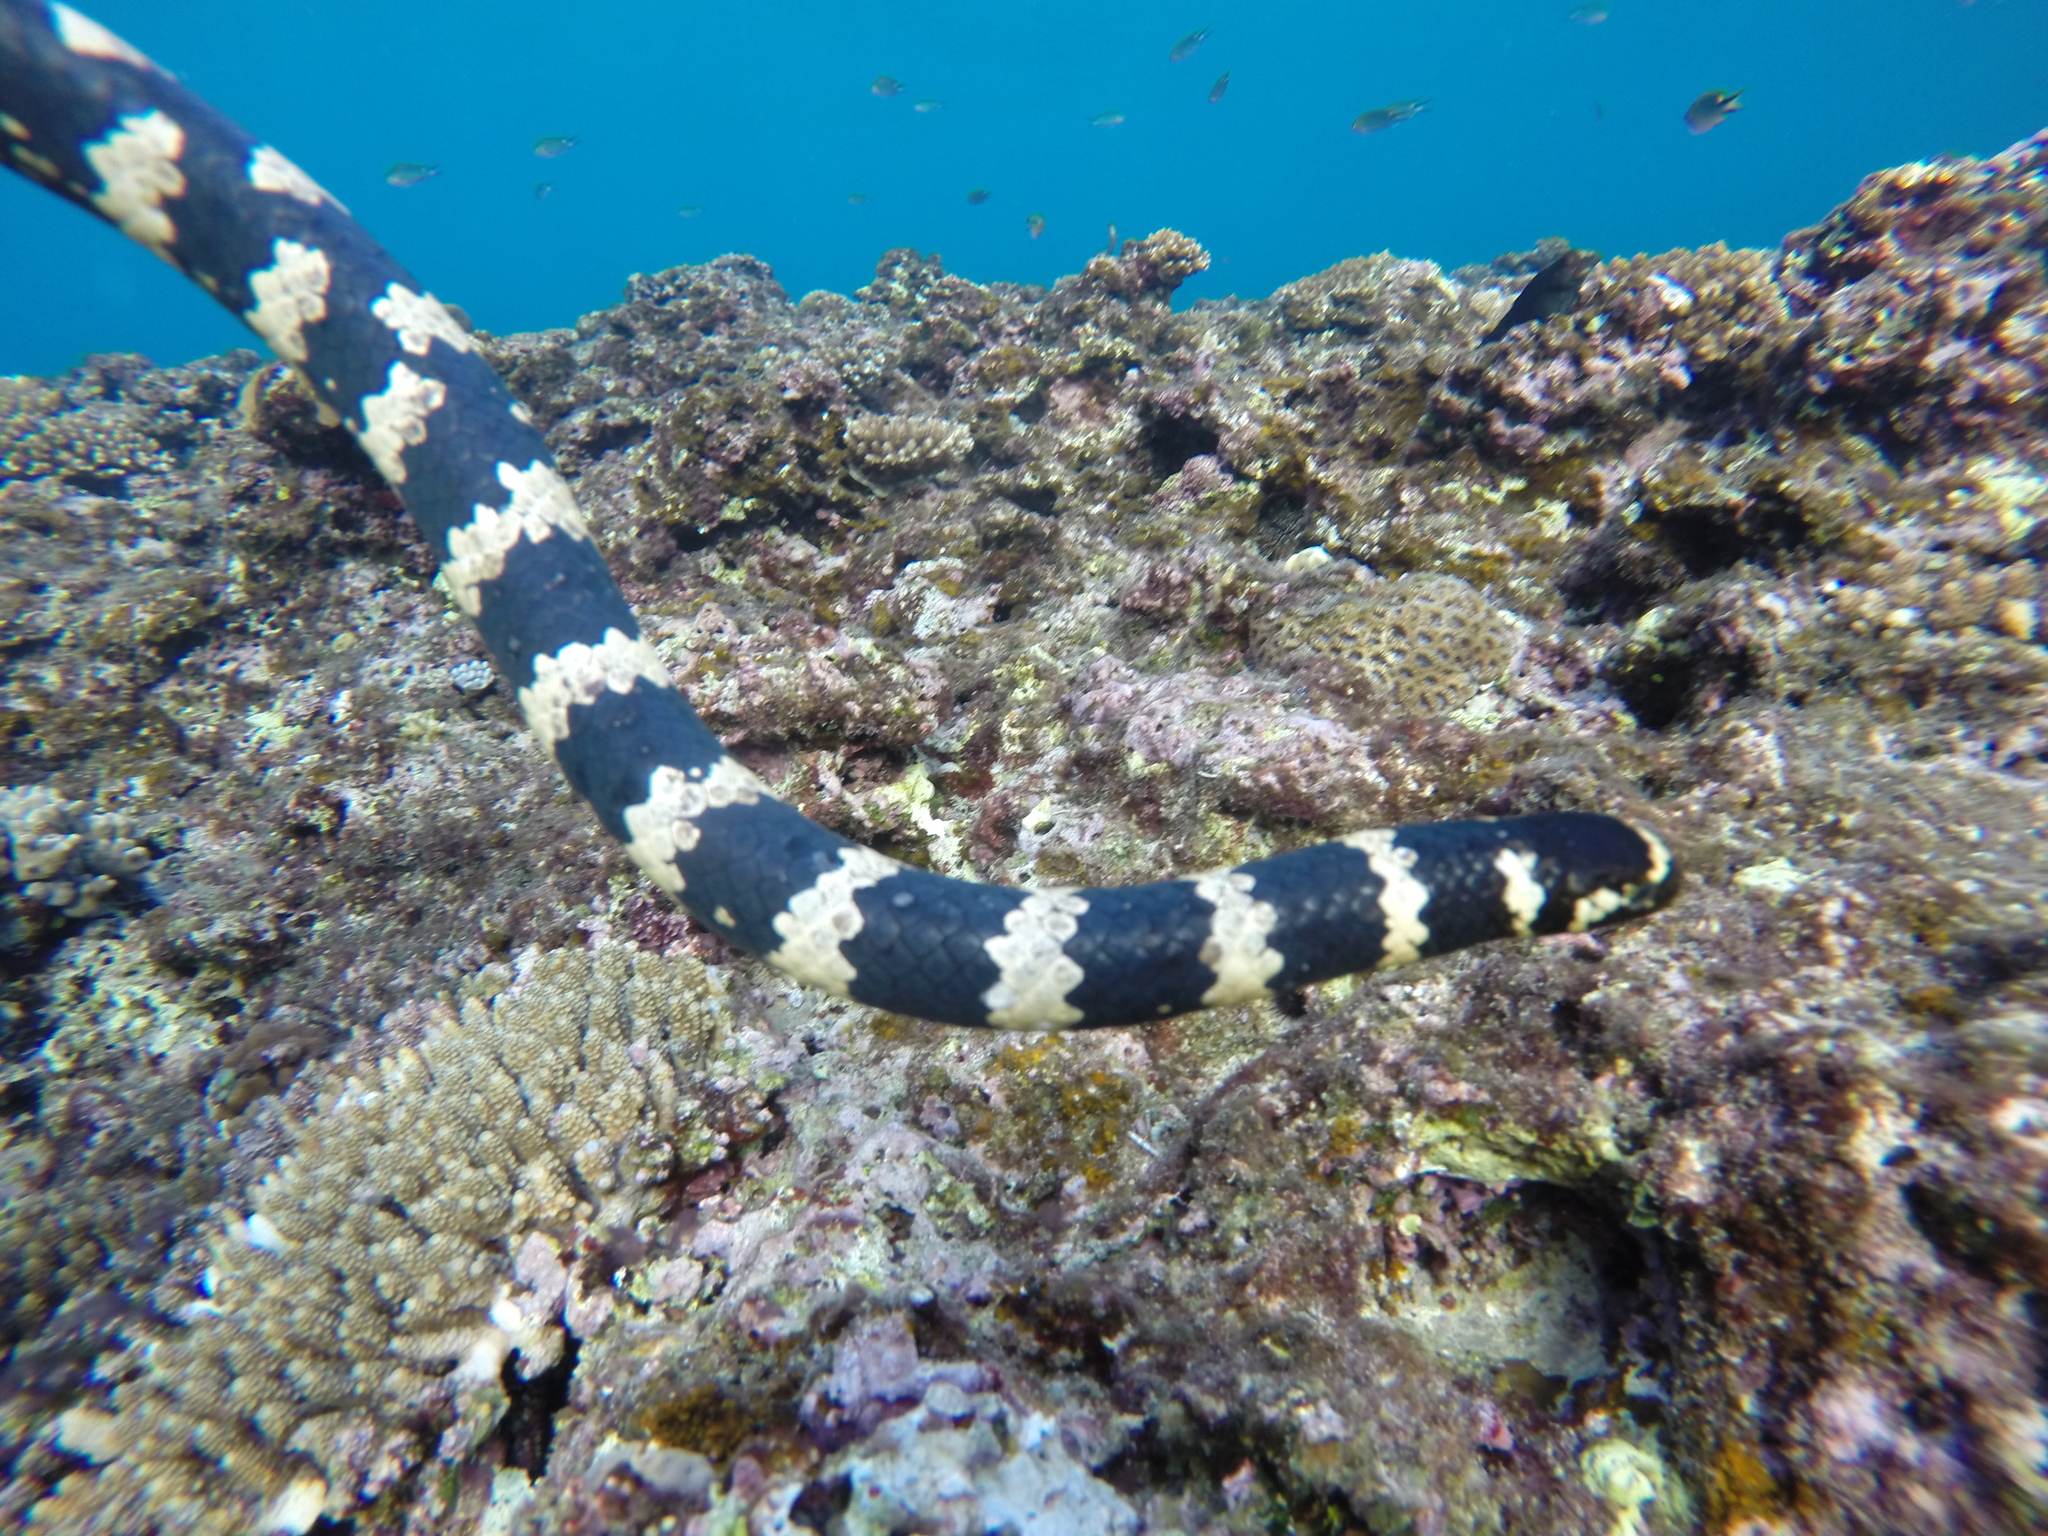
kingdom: Animalia
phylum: Chordata
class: Squamata
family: Elapidae
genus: Emydocephalus
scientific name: Emydocephalus ijimae
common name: Turtlehead sea snake
